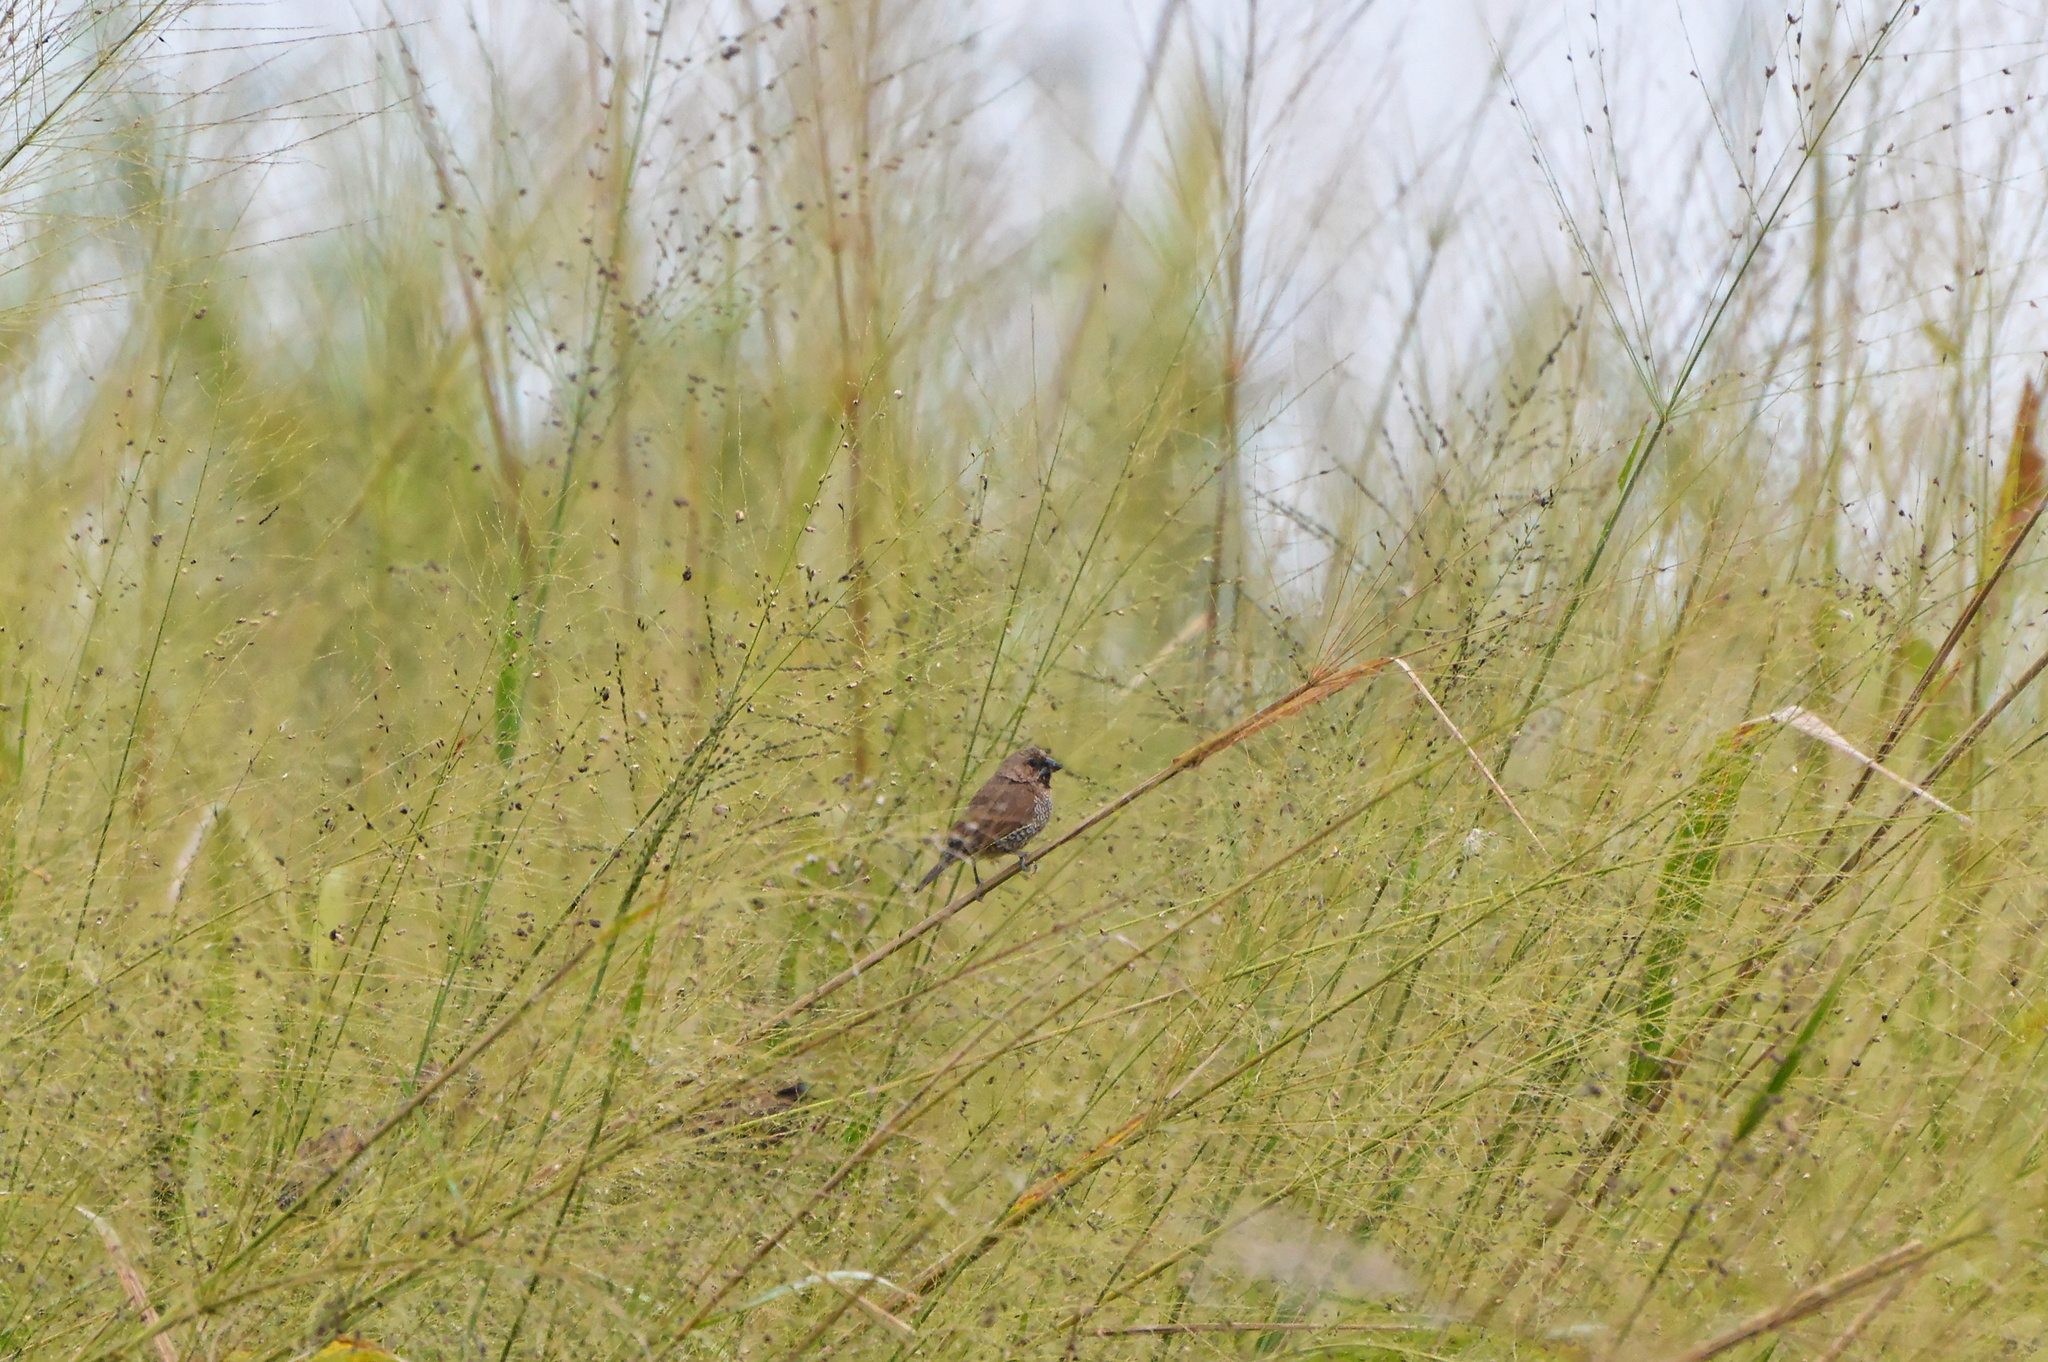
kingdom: Animalia
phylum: Chordata
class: Aves
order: Passeriformes
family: Estrildidae
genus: Lonchura
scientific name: Lonchura punctulata
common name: Scaly-breasted munia
